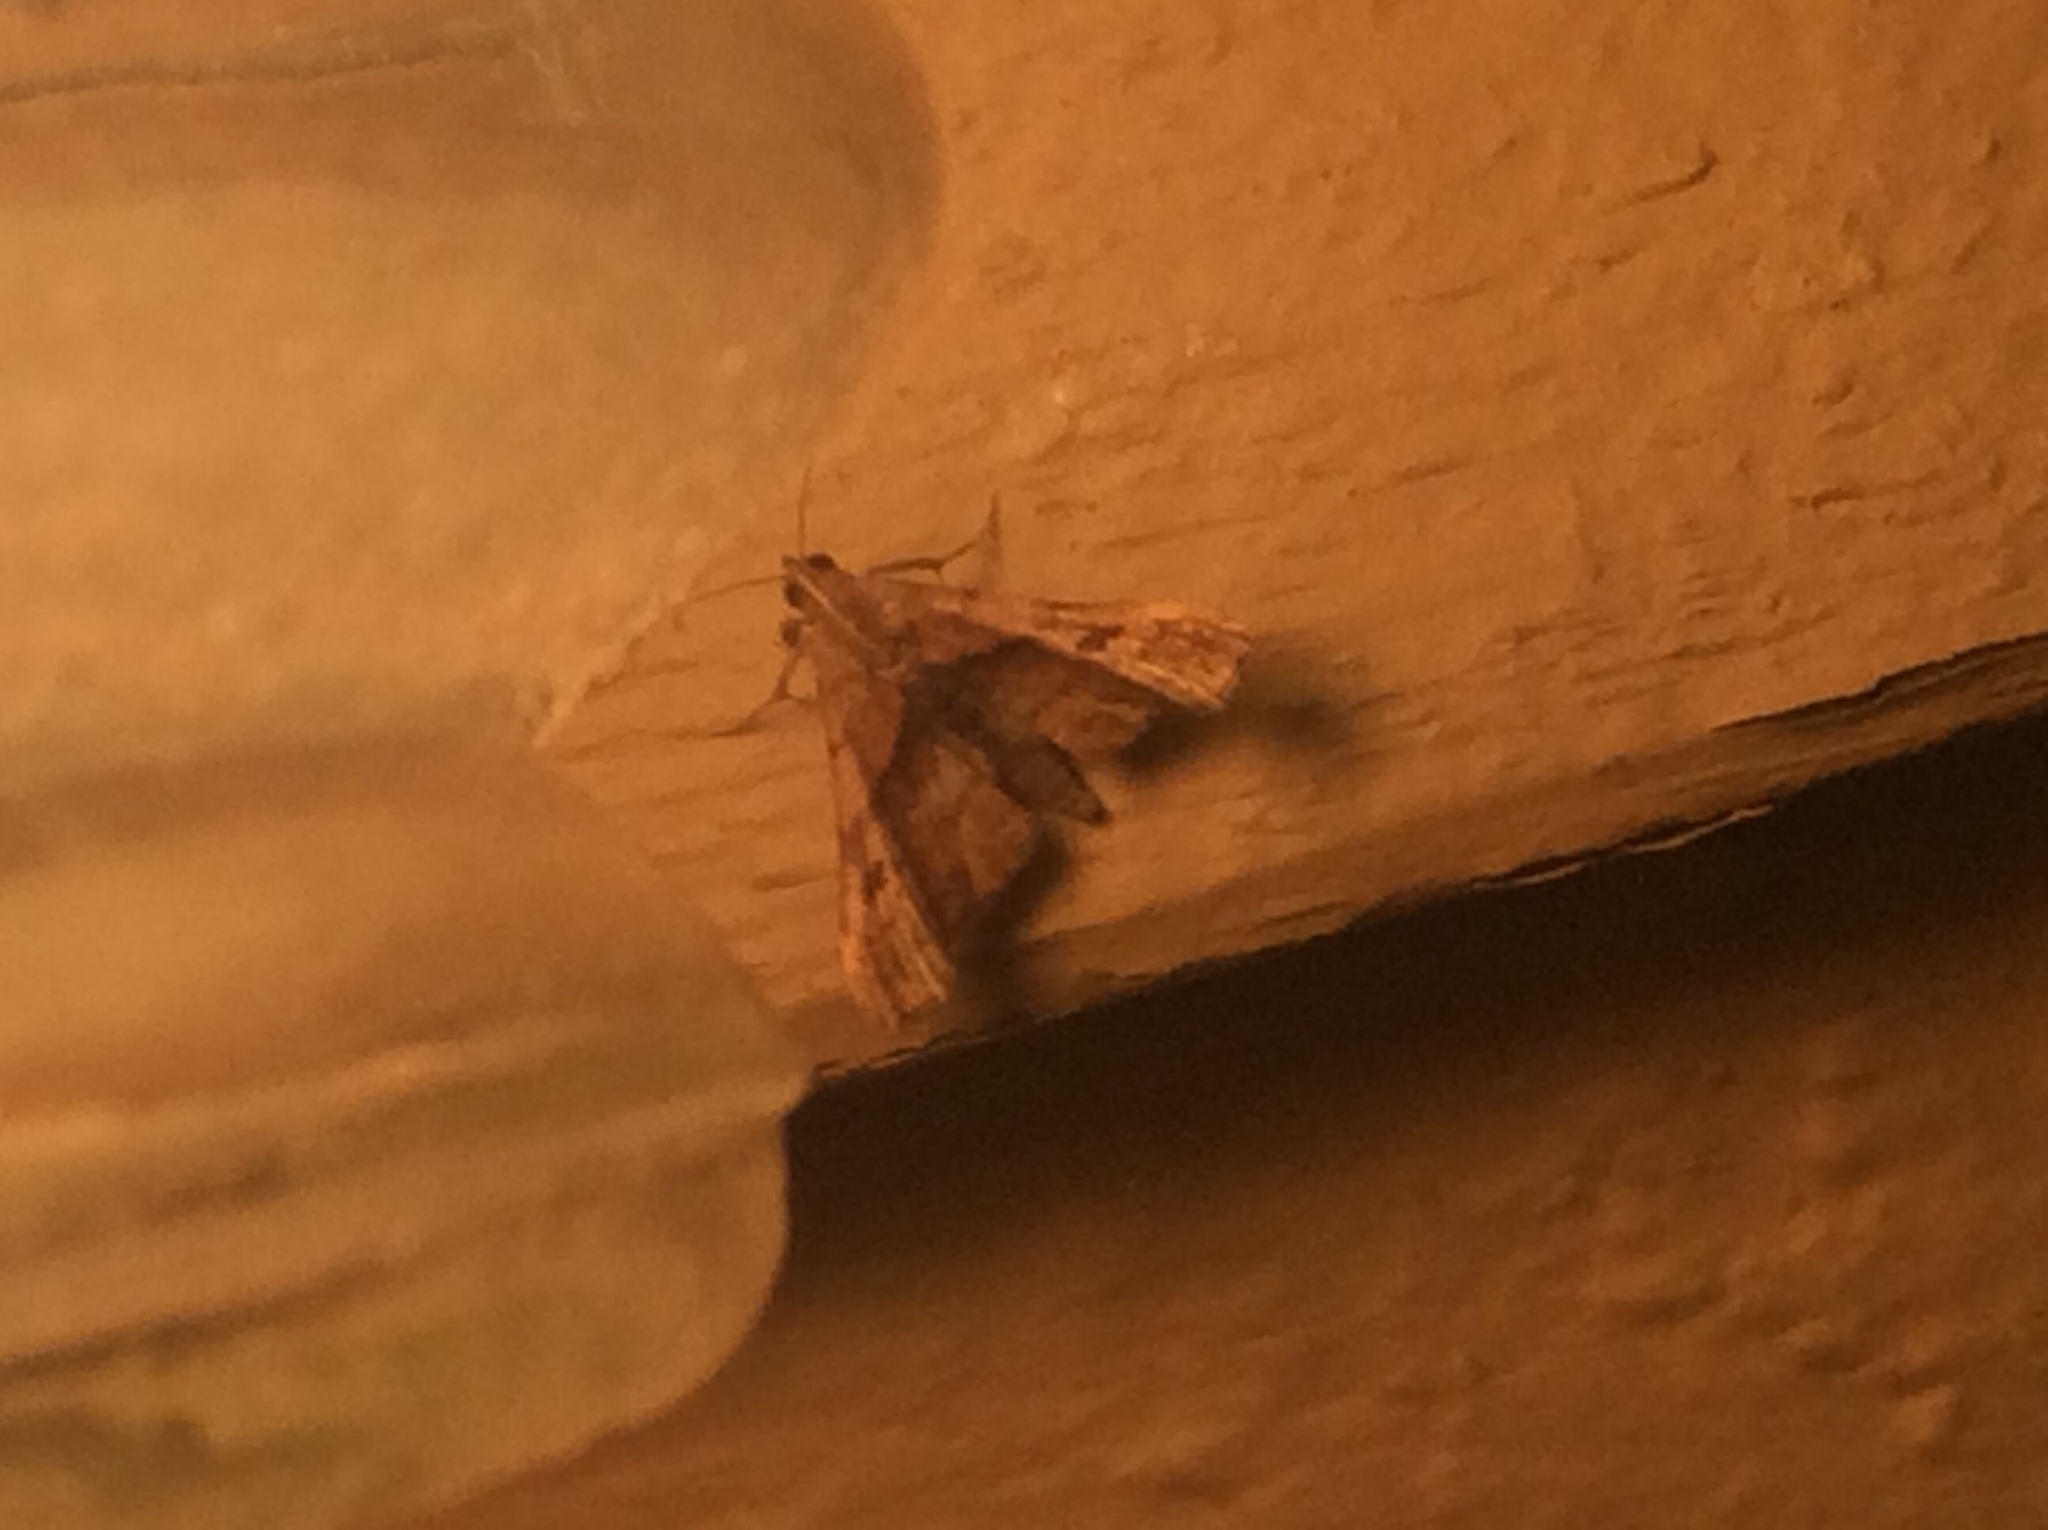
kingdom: Animalia
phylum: Arthropoda
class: Insecta
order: Lepidoptera
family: Erebidae
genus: Palthis
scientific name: Palthis angulalis
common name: Dark-spotted palthis moth
